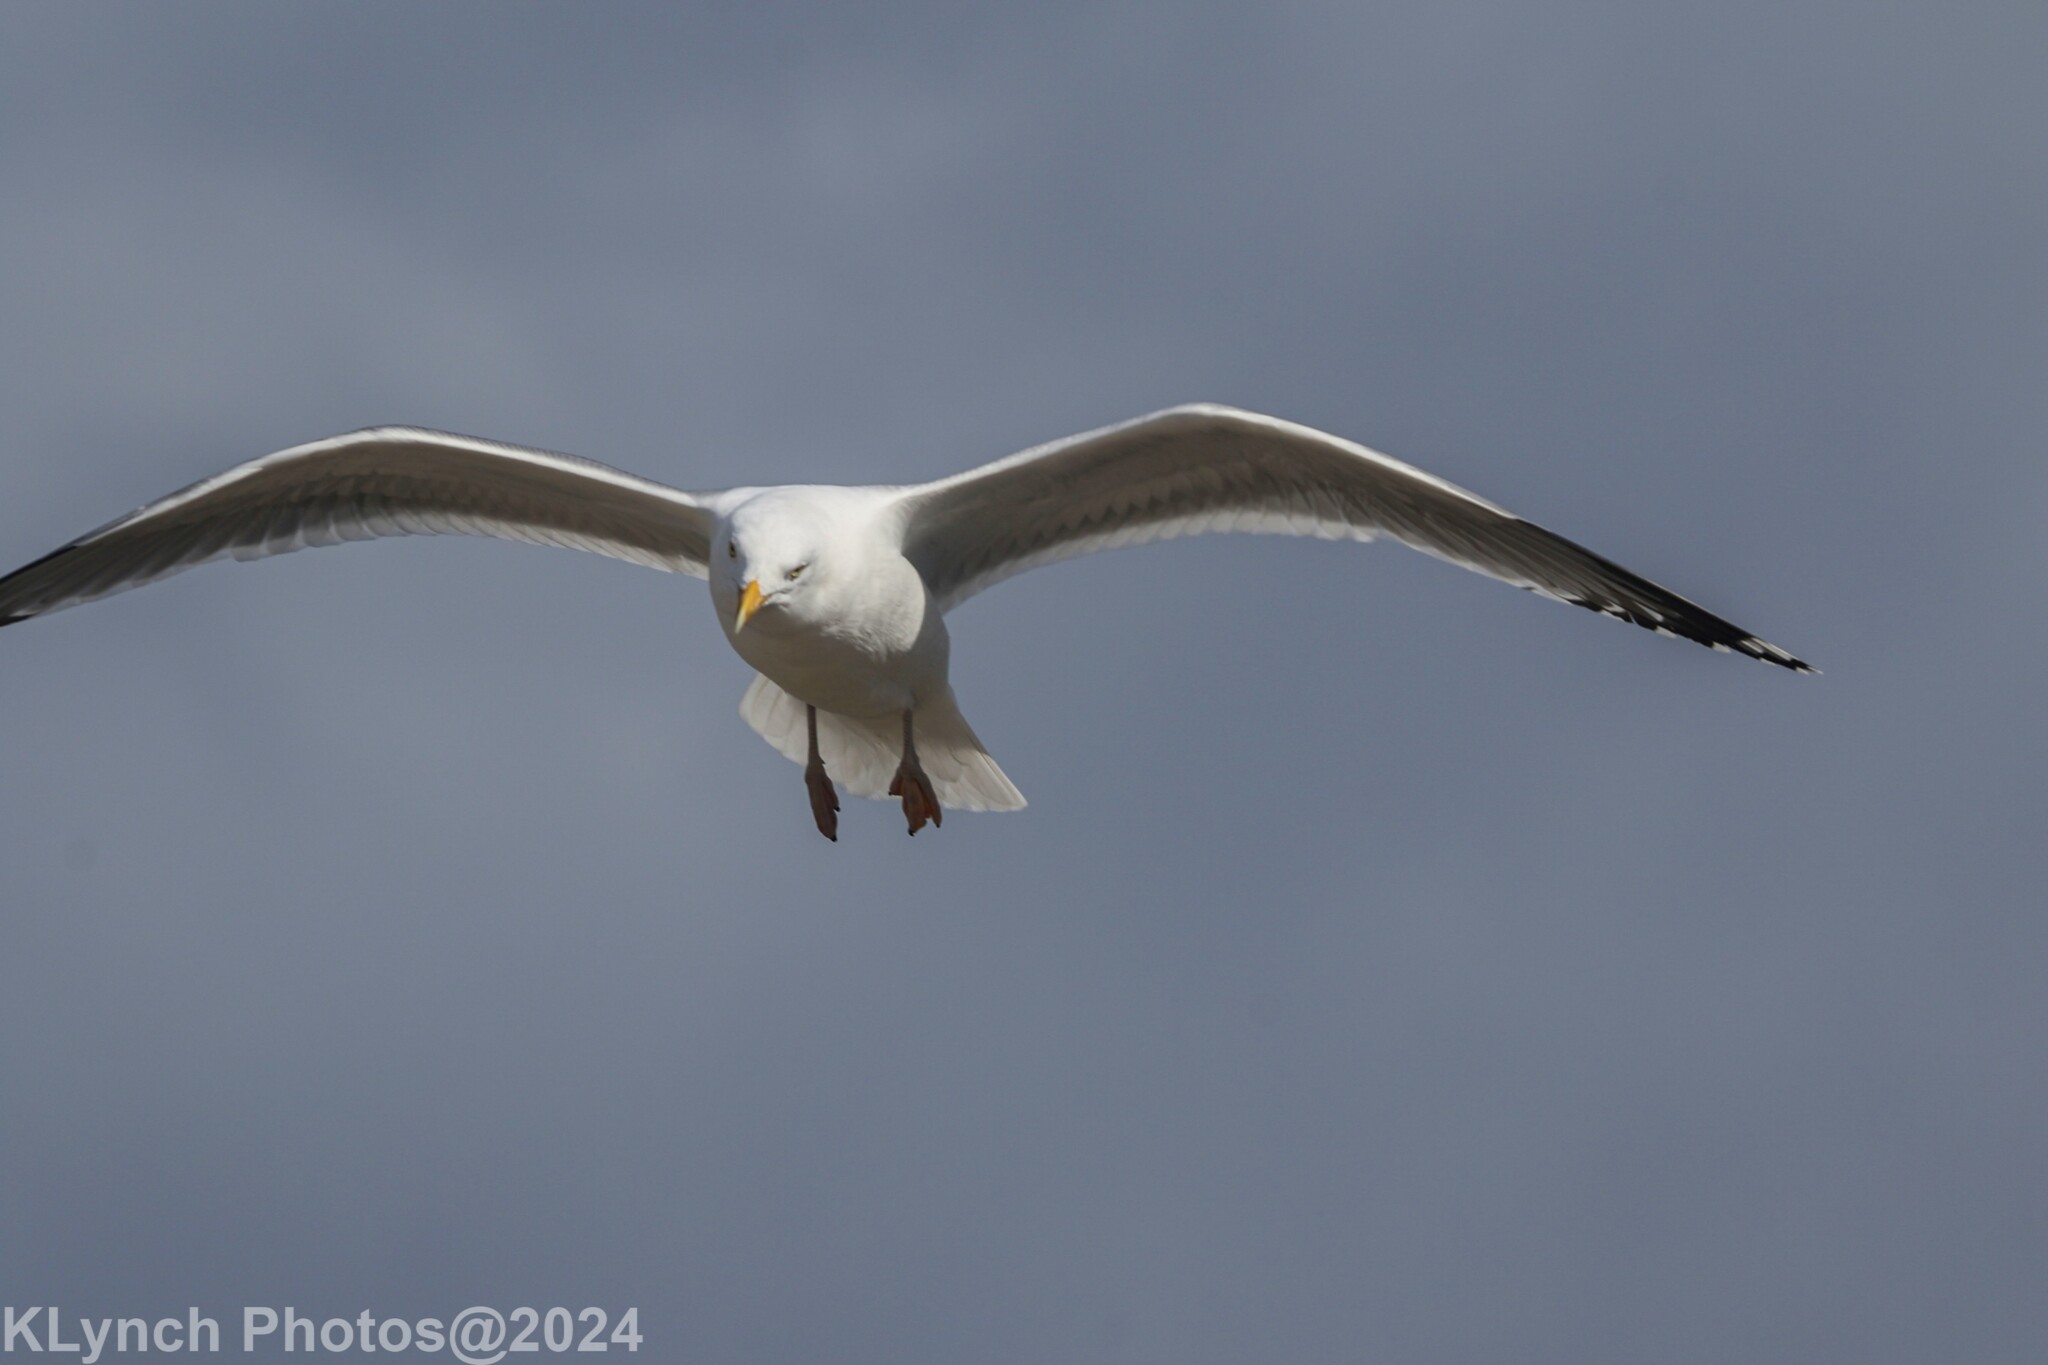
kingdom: Animalia
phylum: Chordata
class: Aves
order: Charadriiformes
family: Laridae
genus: Larus
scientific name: Larus argentatus
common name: Herring gull
